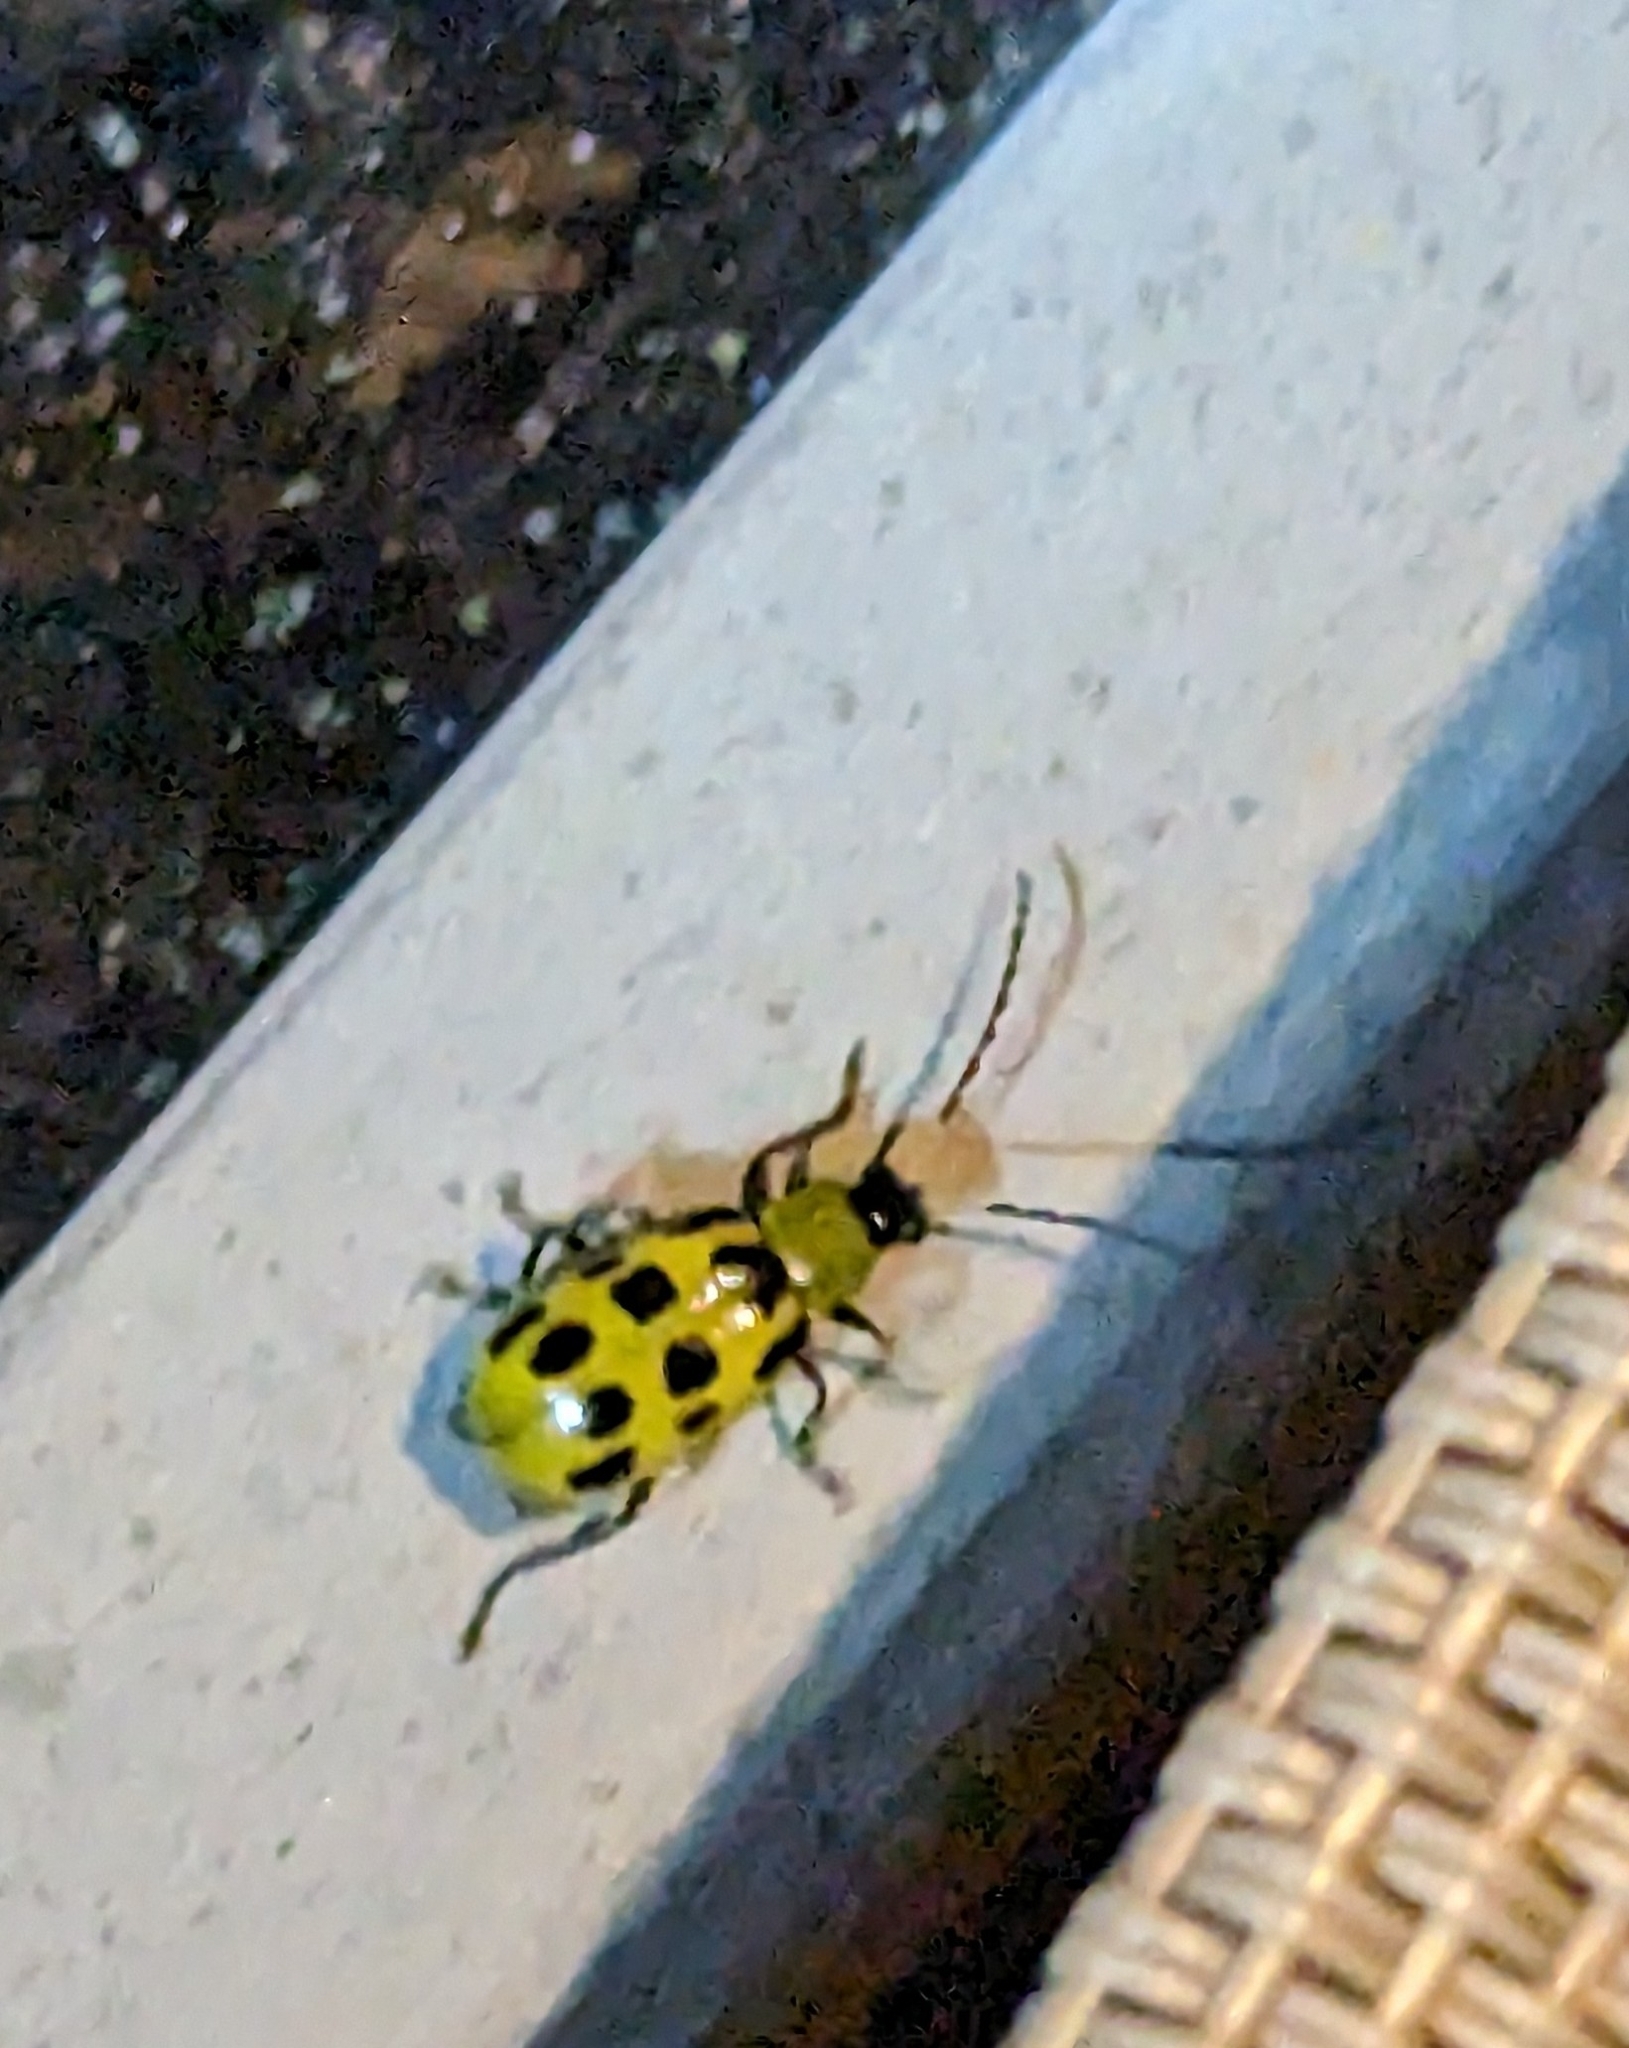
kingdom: Animalia
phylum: Arthropoda
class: Insecta
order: Coleoptera
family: Chrysomelidae
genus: Diabrotica
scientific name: Diabrotica undecimpunctata
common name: Spotted cucumber beetle
